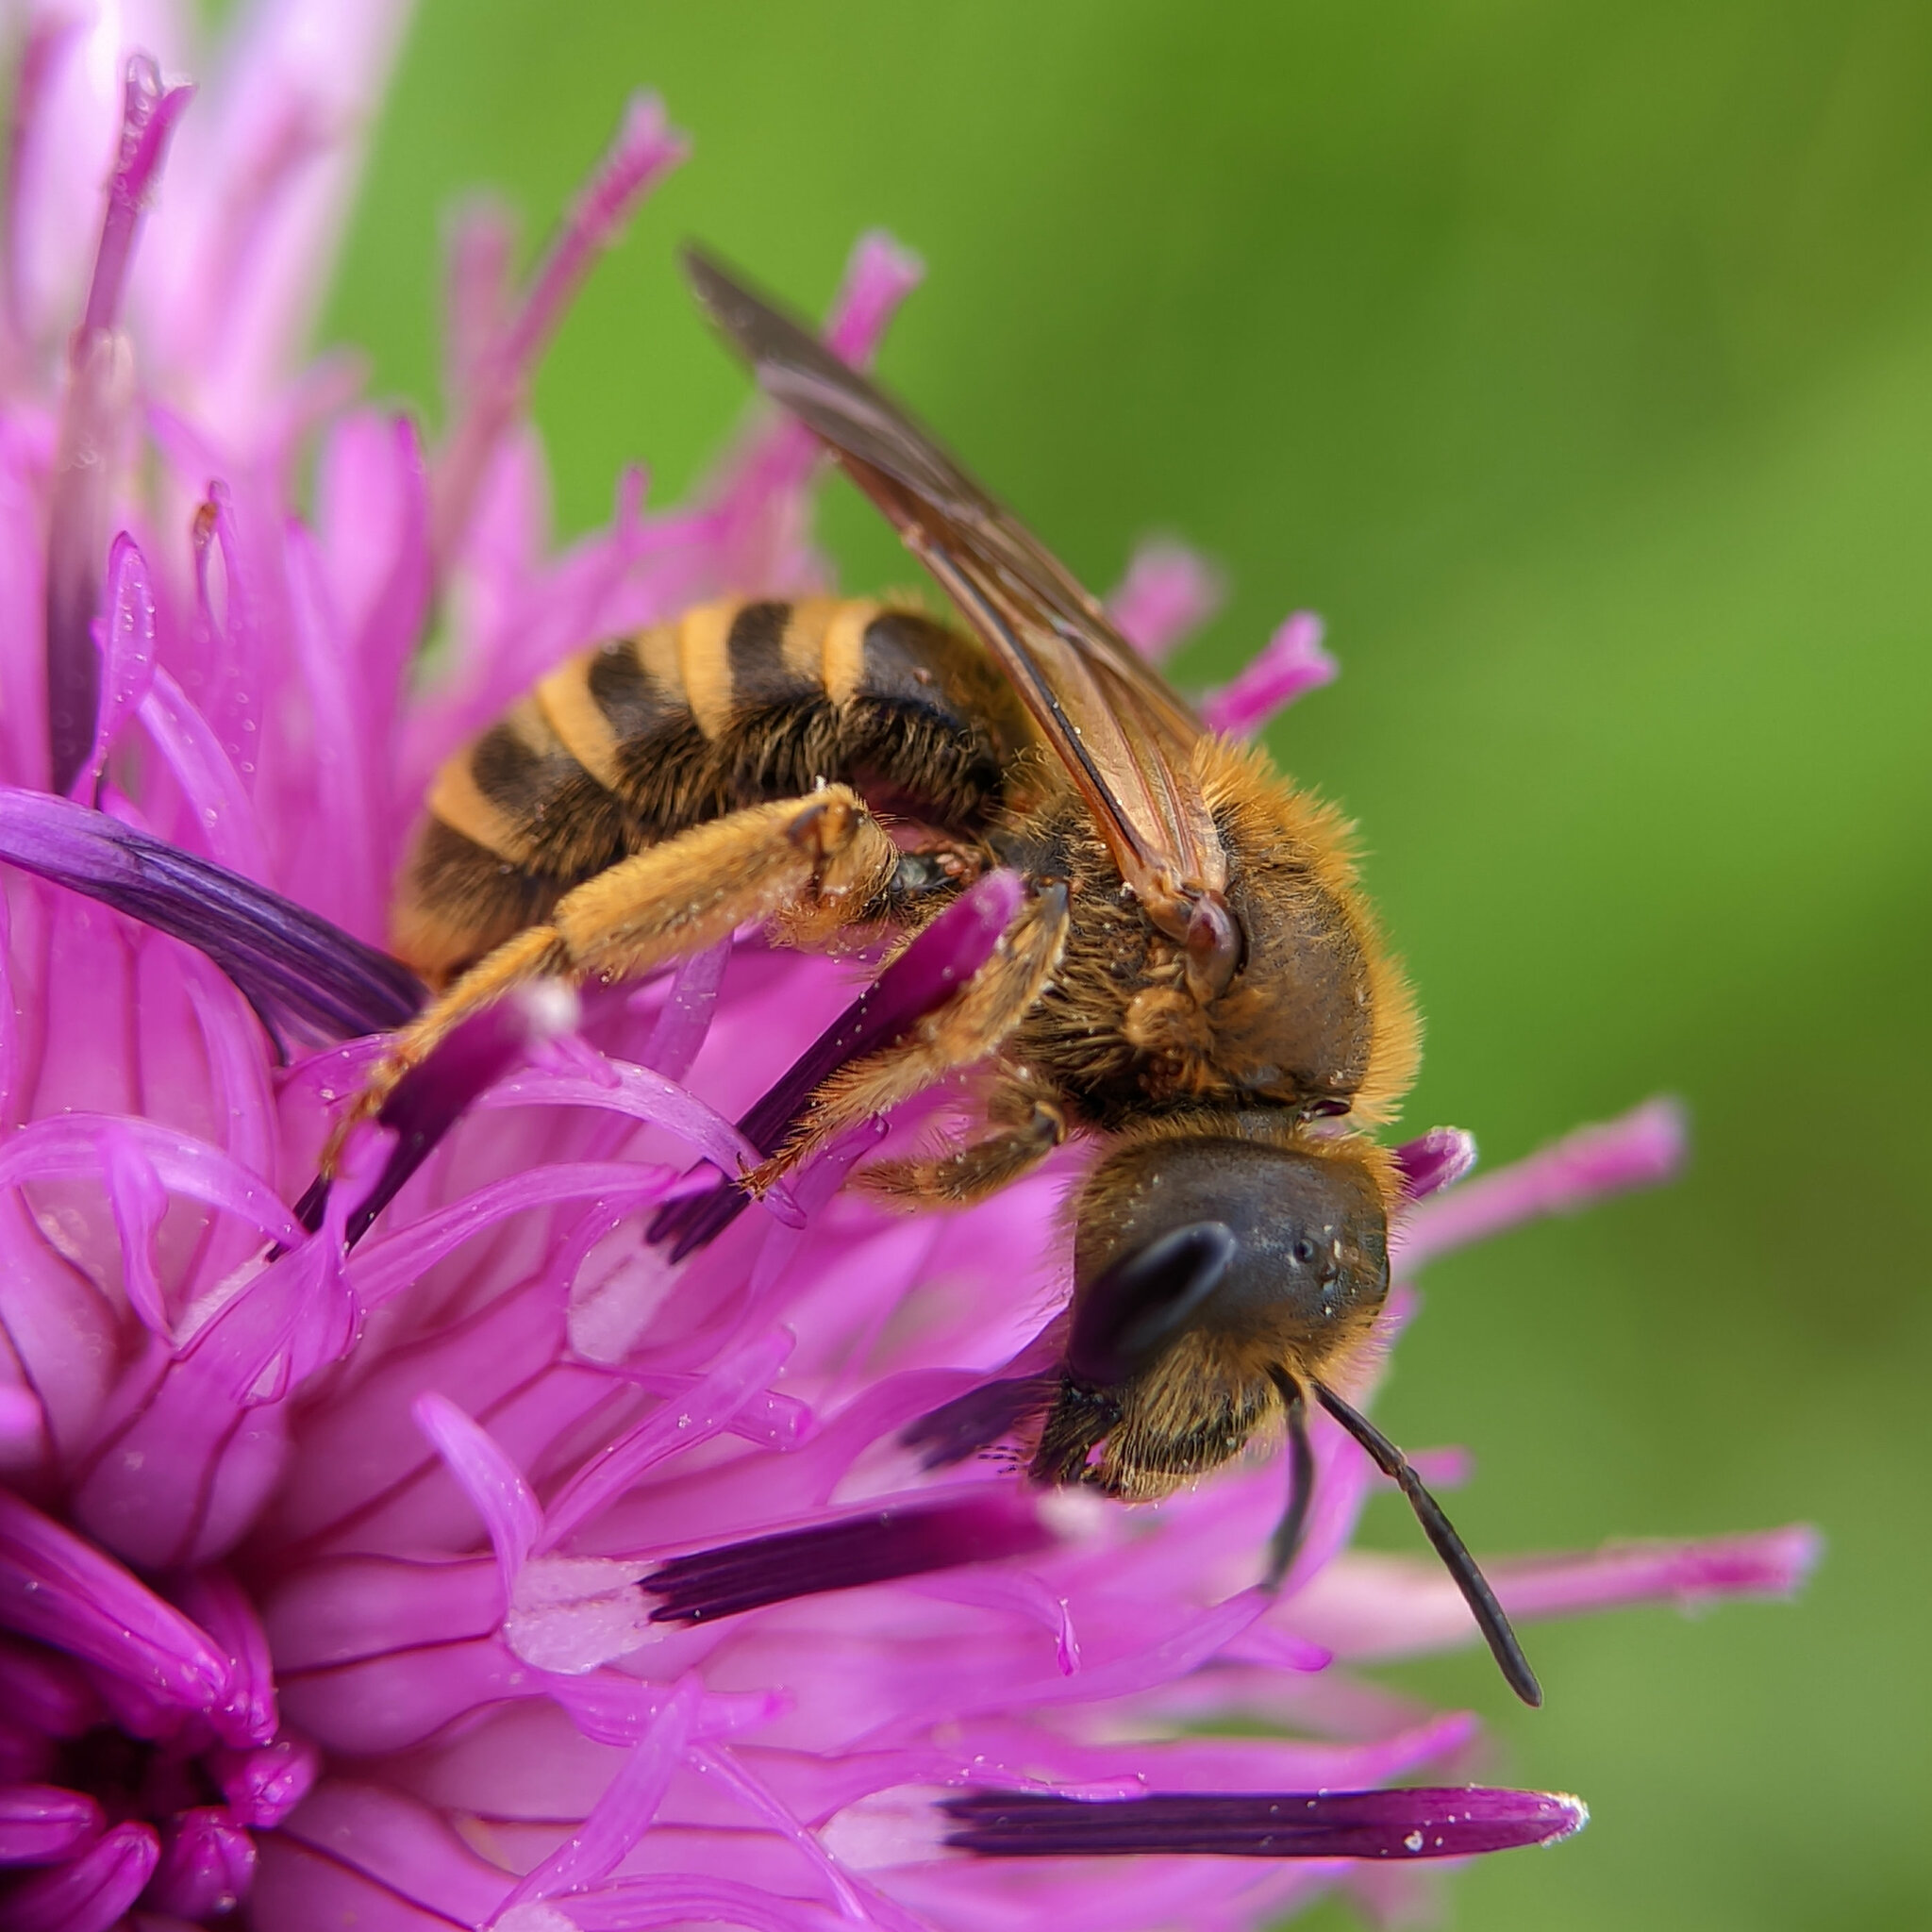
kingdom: Animalia
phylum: Arthropoda
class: Insecta
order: Hymenoptera
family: Halictidae
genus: Halictus
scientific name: Halictus scabiosae
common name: Great banded furrow bee
